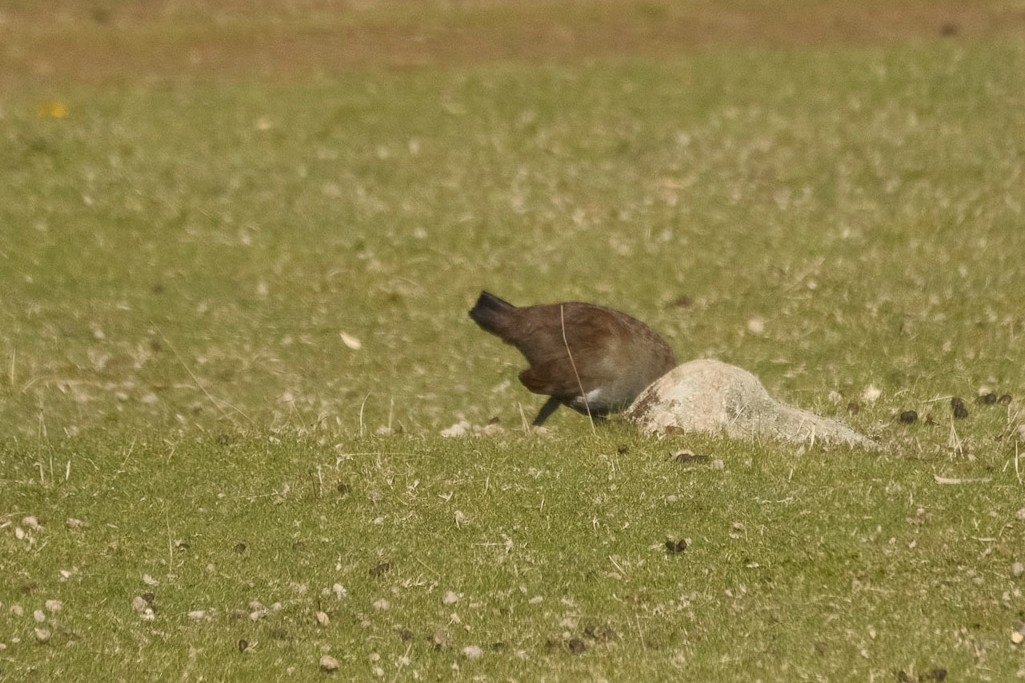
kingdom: Animalia
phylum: Chordata
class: Aves
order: Gruiformes
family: Rallidae
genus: Gallinula
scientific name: Gallinula mortierii
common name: Tasmanian nativehen
